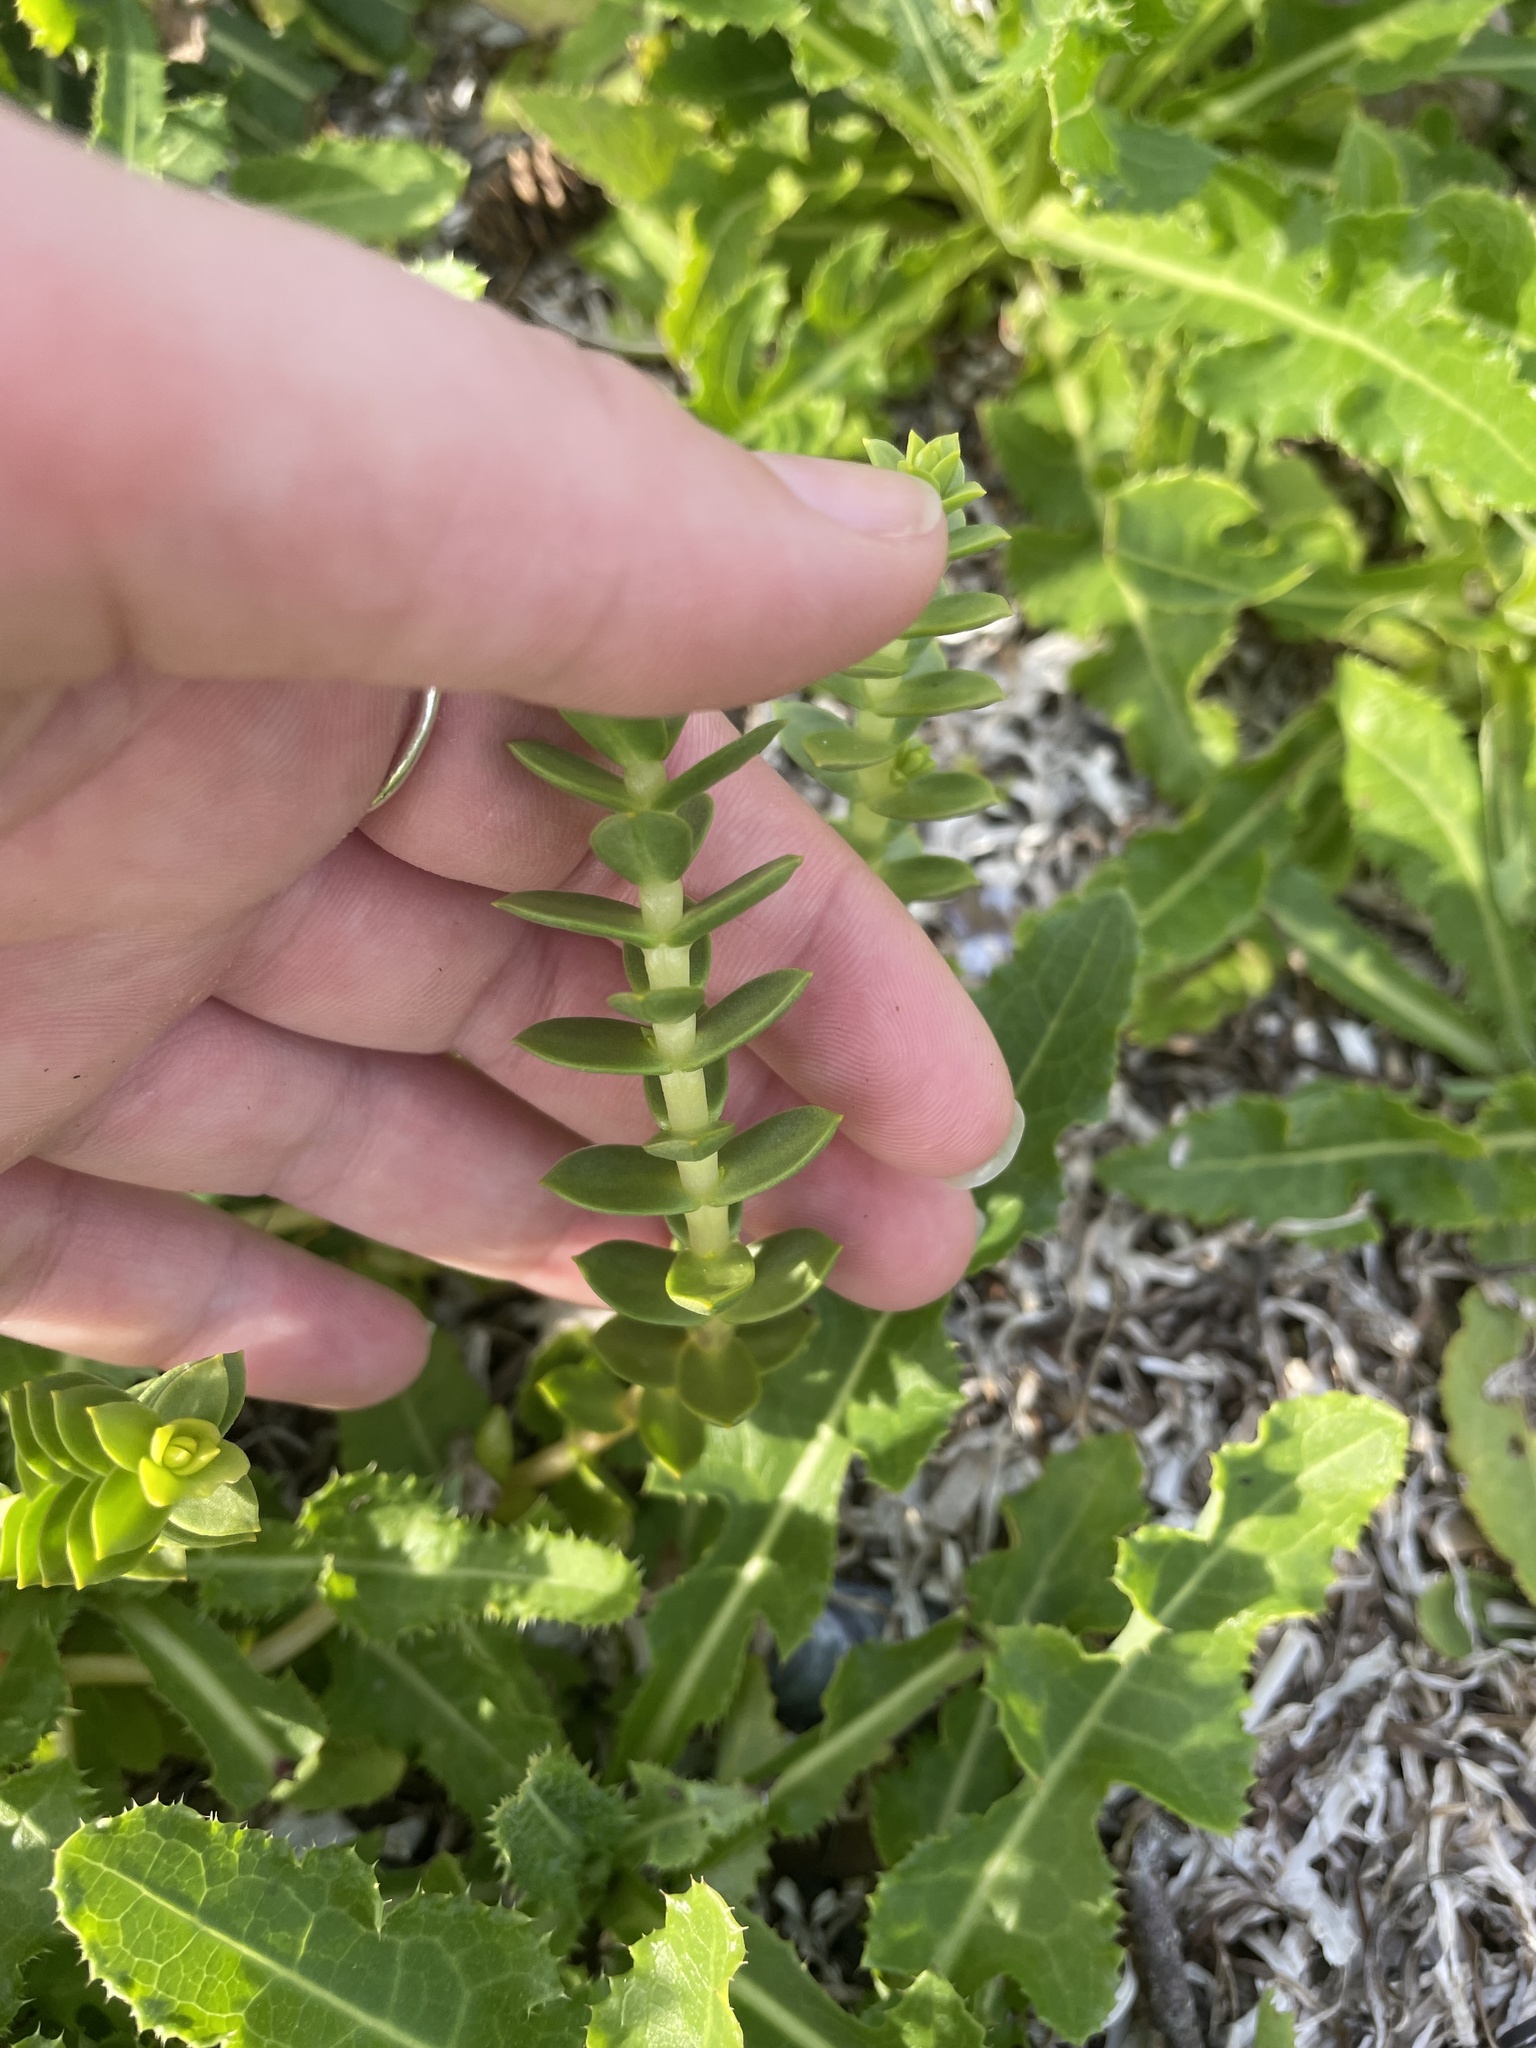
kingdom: Plantae
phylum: Tracheophyta
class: Magnoliopsida
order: Caryophyllales
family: Caryophyllaceae
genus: Honckenya
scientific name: Honckenya peploides
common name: Sea sandwort
